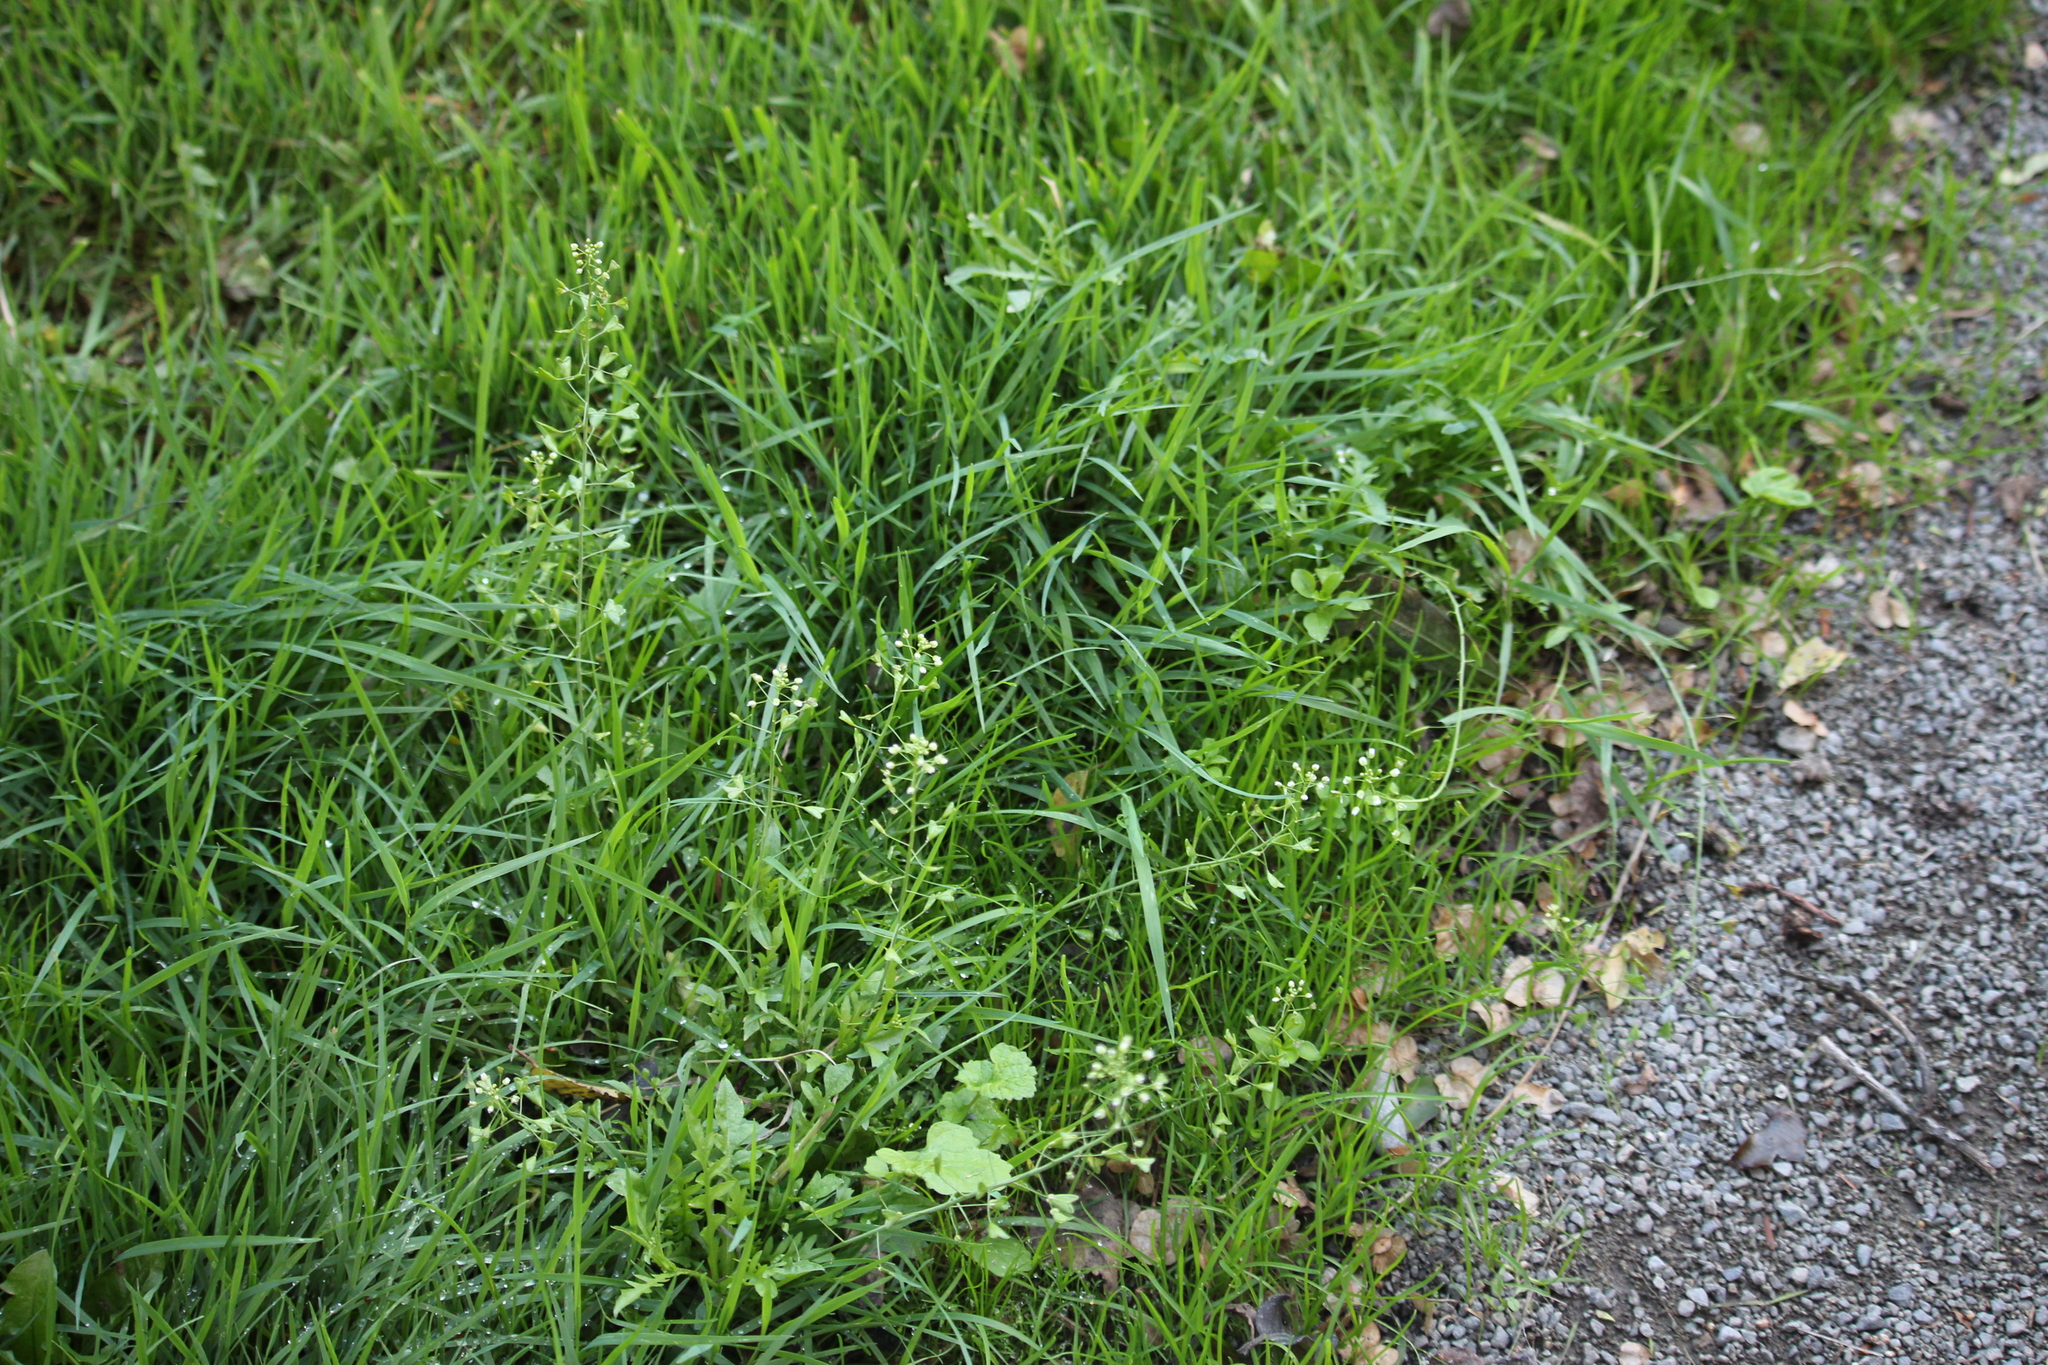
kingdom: Plantae
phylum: Tracheophyta
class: Magnoliopsida
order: Brassicales
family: Brassicaceae
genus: Capsella
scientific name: Capsella bursa-pastoris
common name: Shepherd's purse
